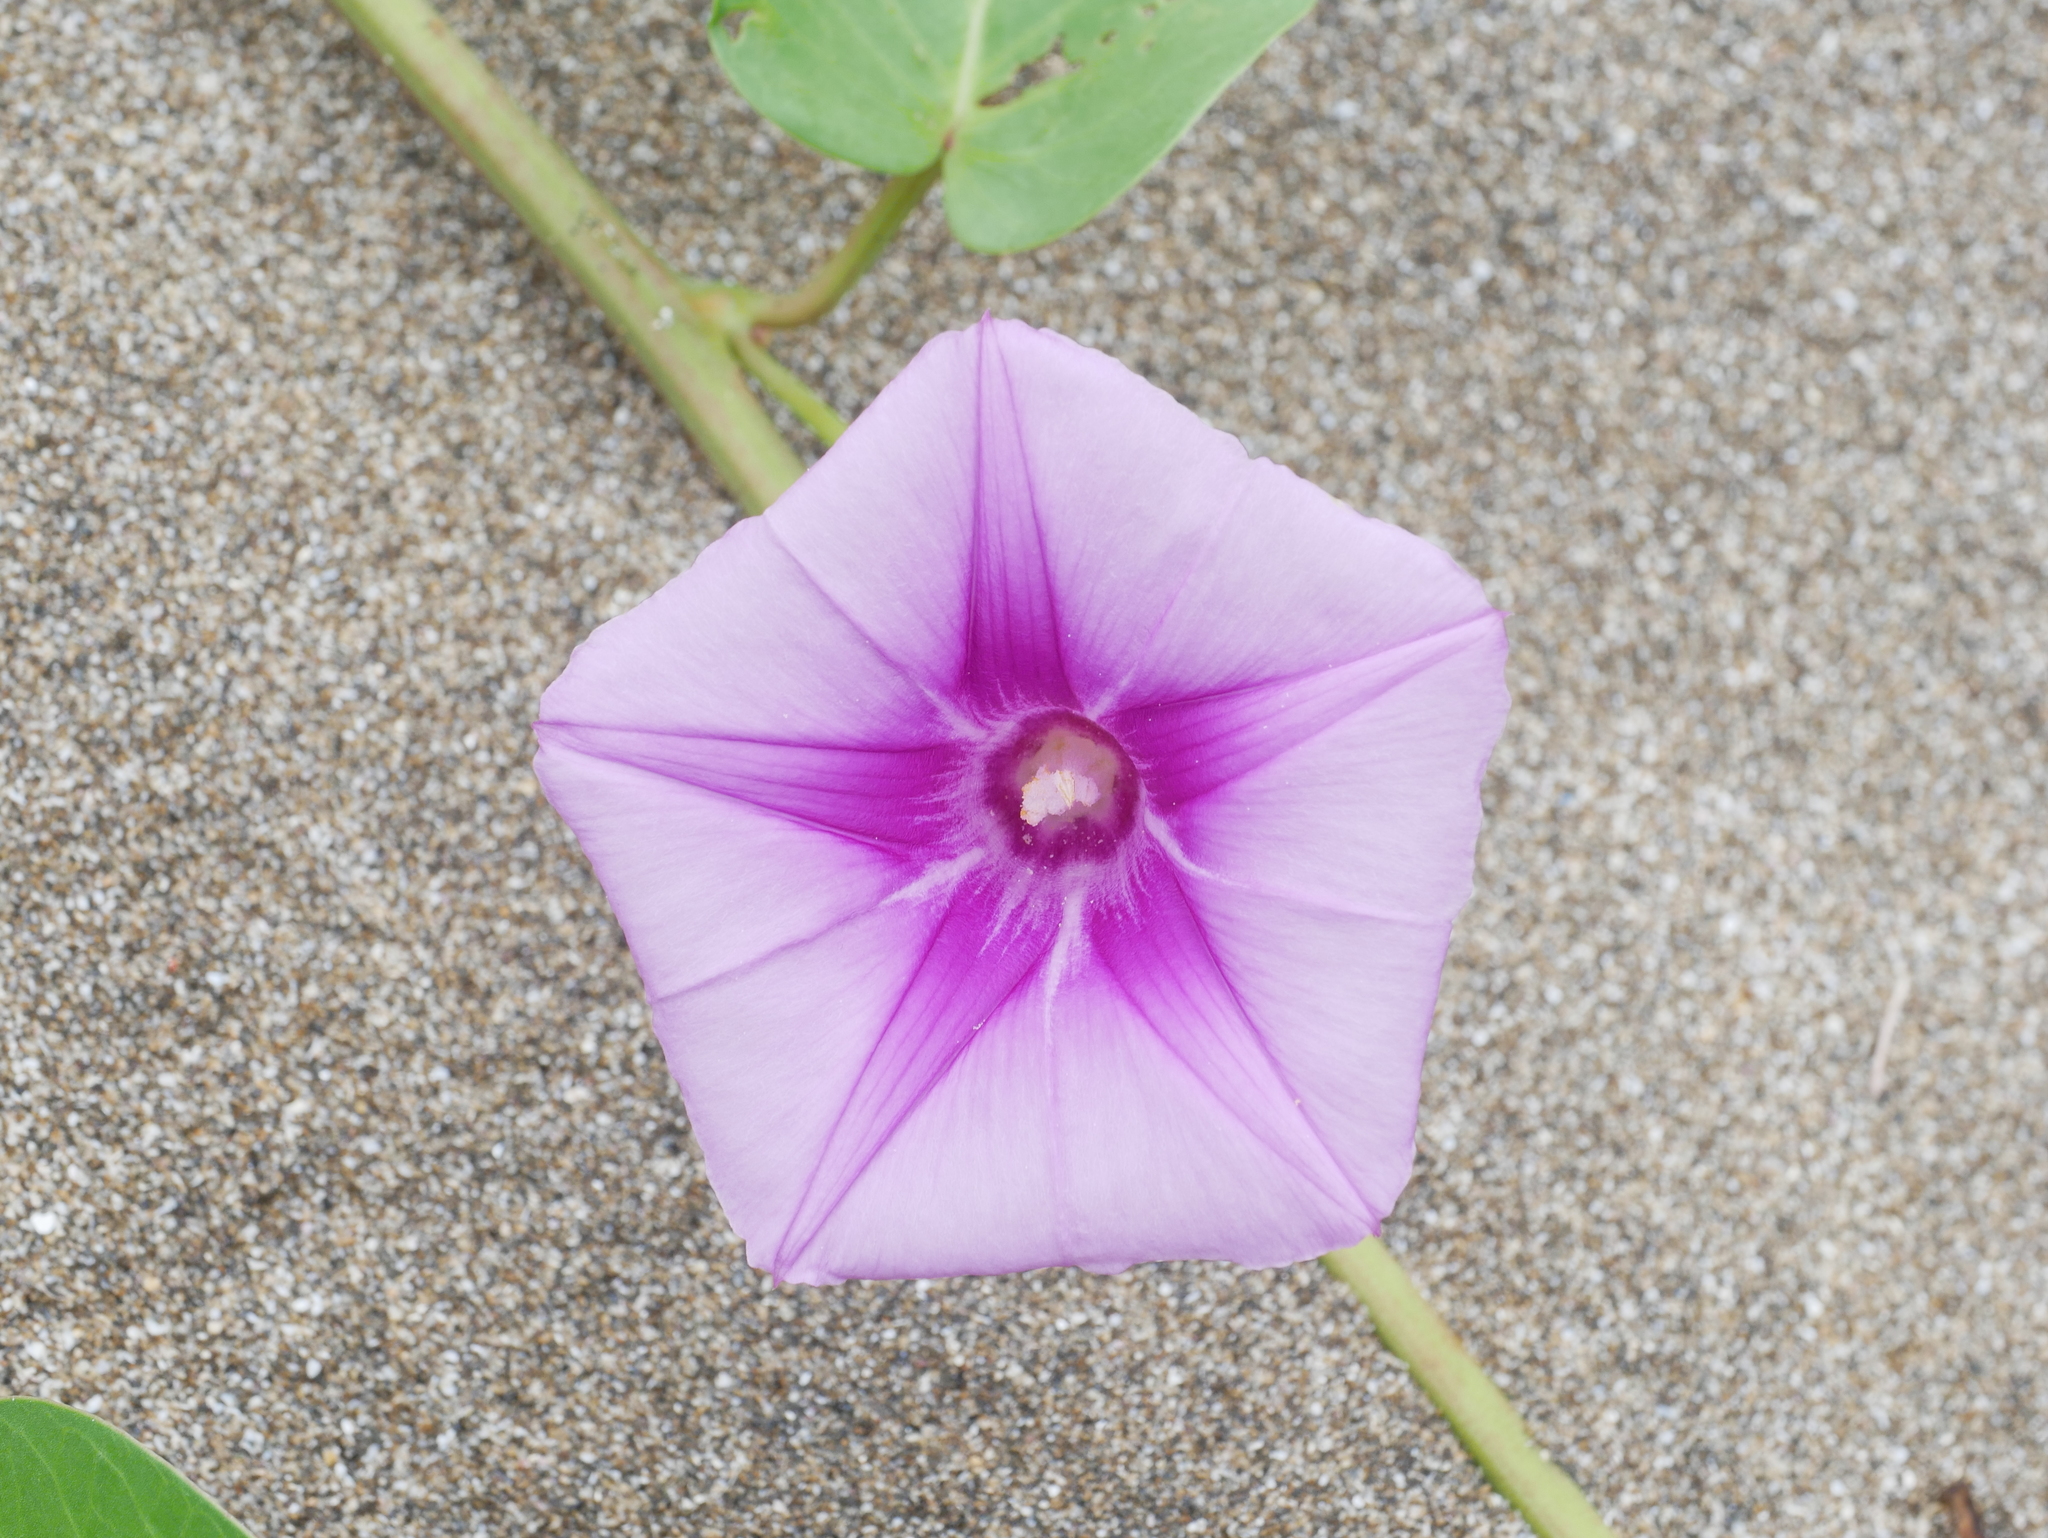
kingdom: Plantae
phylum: Tracheophyta
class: Magnoliopsida
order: Solanales
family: Convolvulaceae
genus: Ipomoea
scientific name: Ipomoea pes-caprae
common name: Beach morning glory
